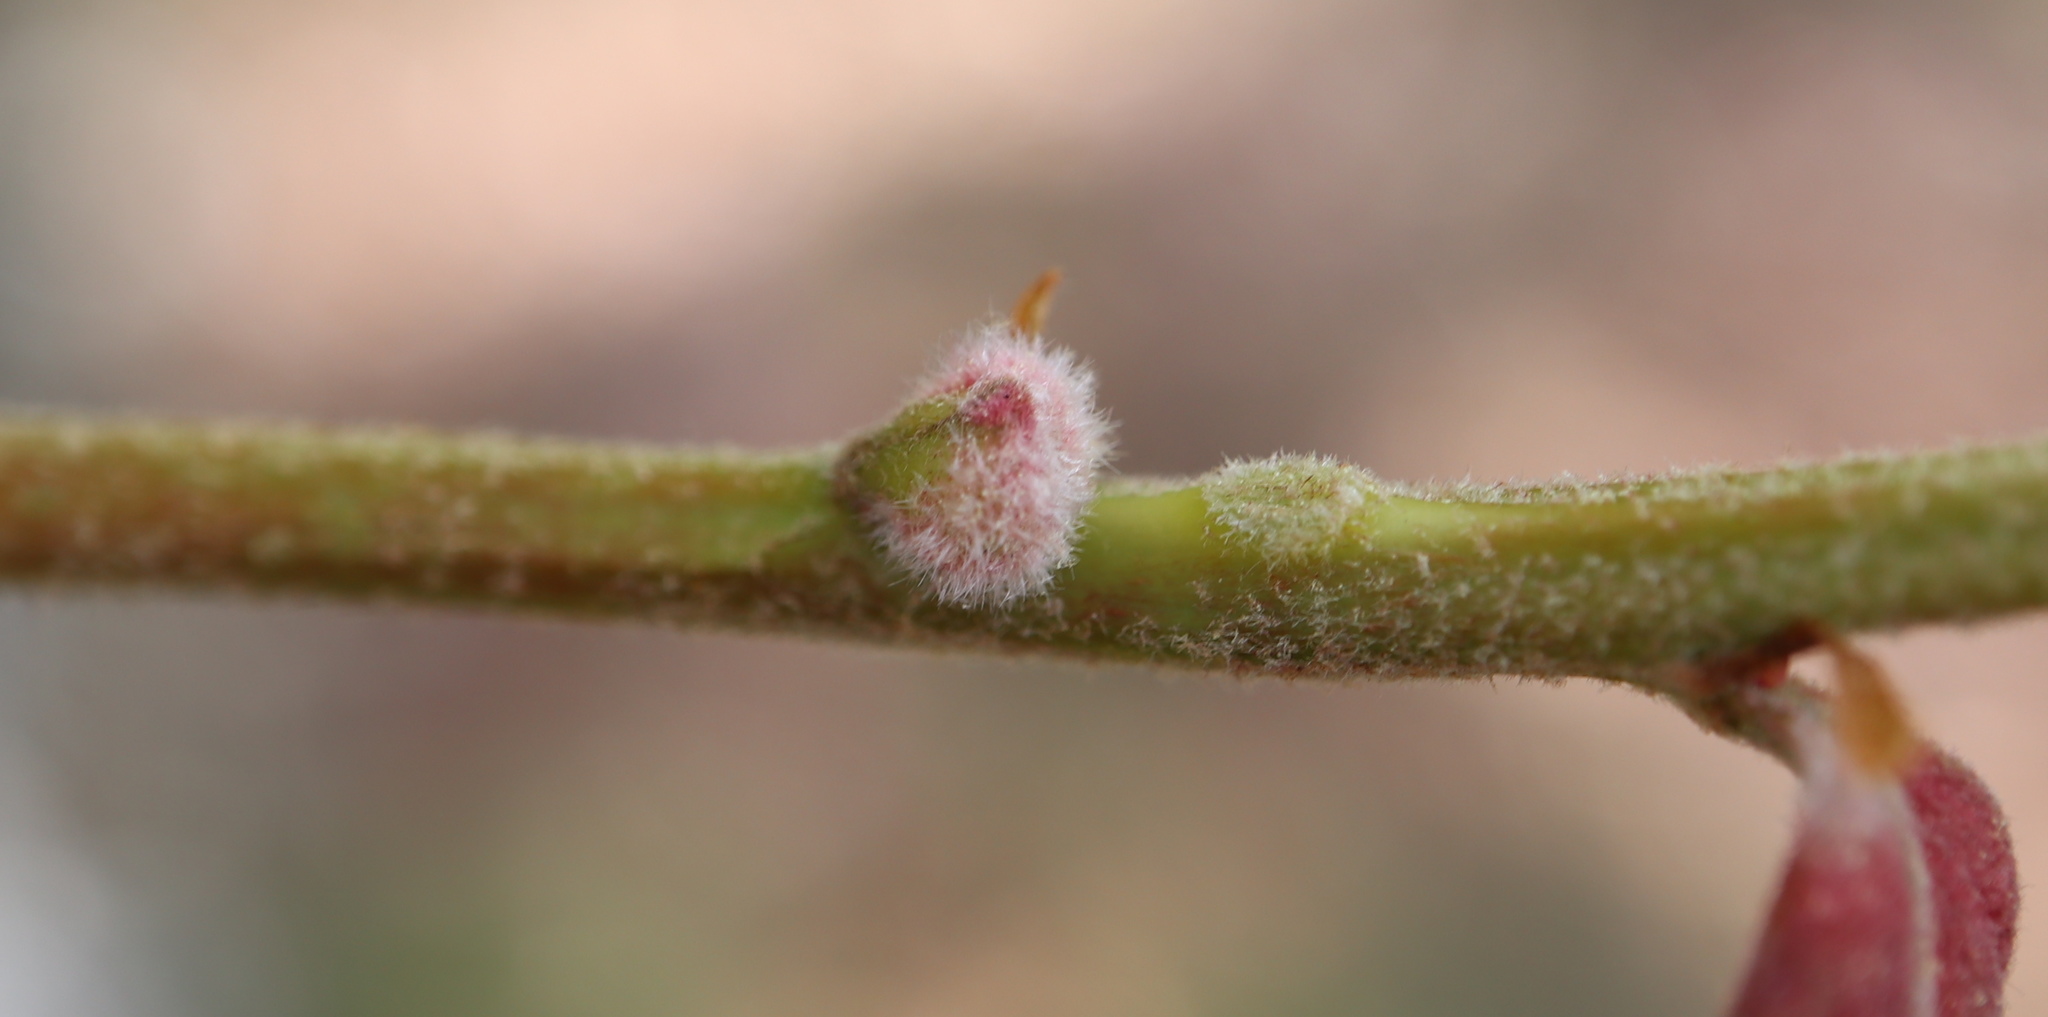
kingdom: Animalia
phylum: Arthropoda
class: Insecta
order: Diptera
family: Cecidomyiidae
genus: Macrodiplosis
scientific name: Macrodiplosis niveipila
